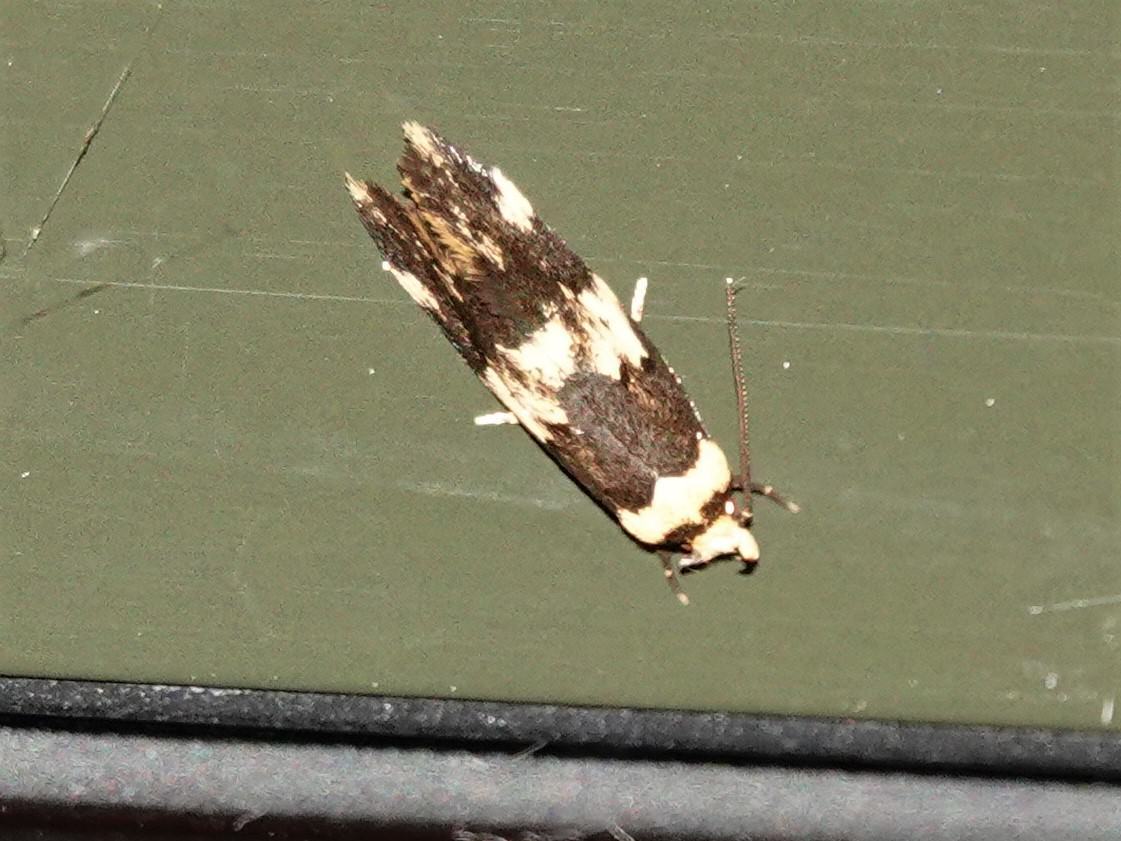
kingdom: Animalia
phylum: Arthropoda
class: Insecta
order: Lepidoptera
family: Oecophoridae
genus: Sphyrelata
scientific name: Sphyrelata amotella
